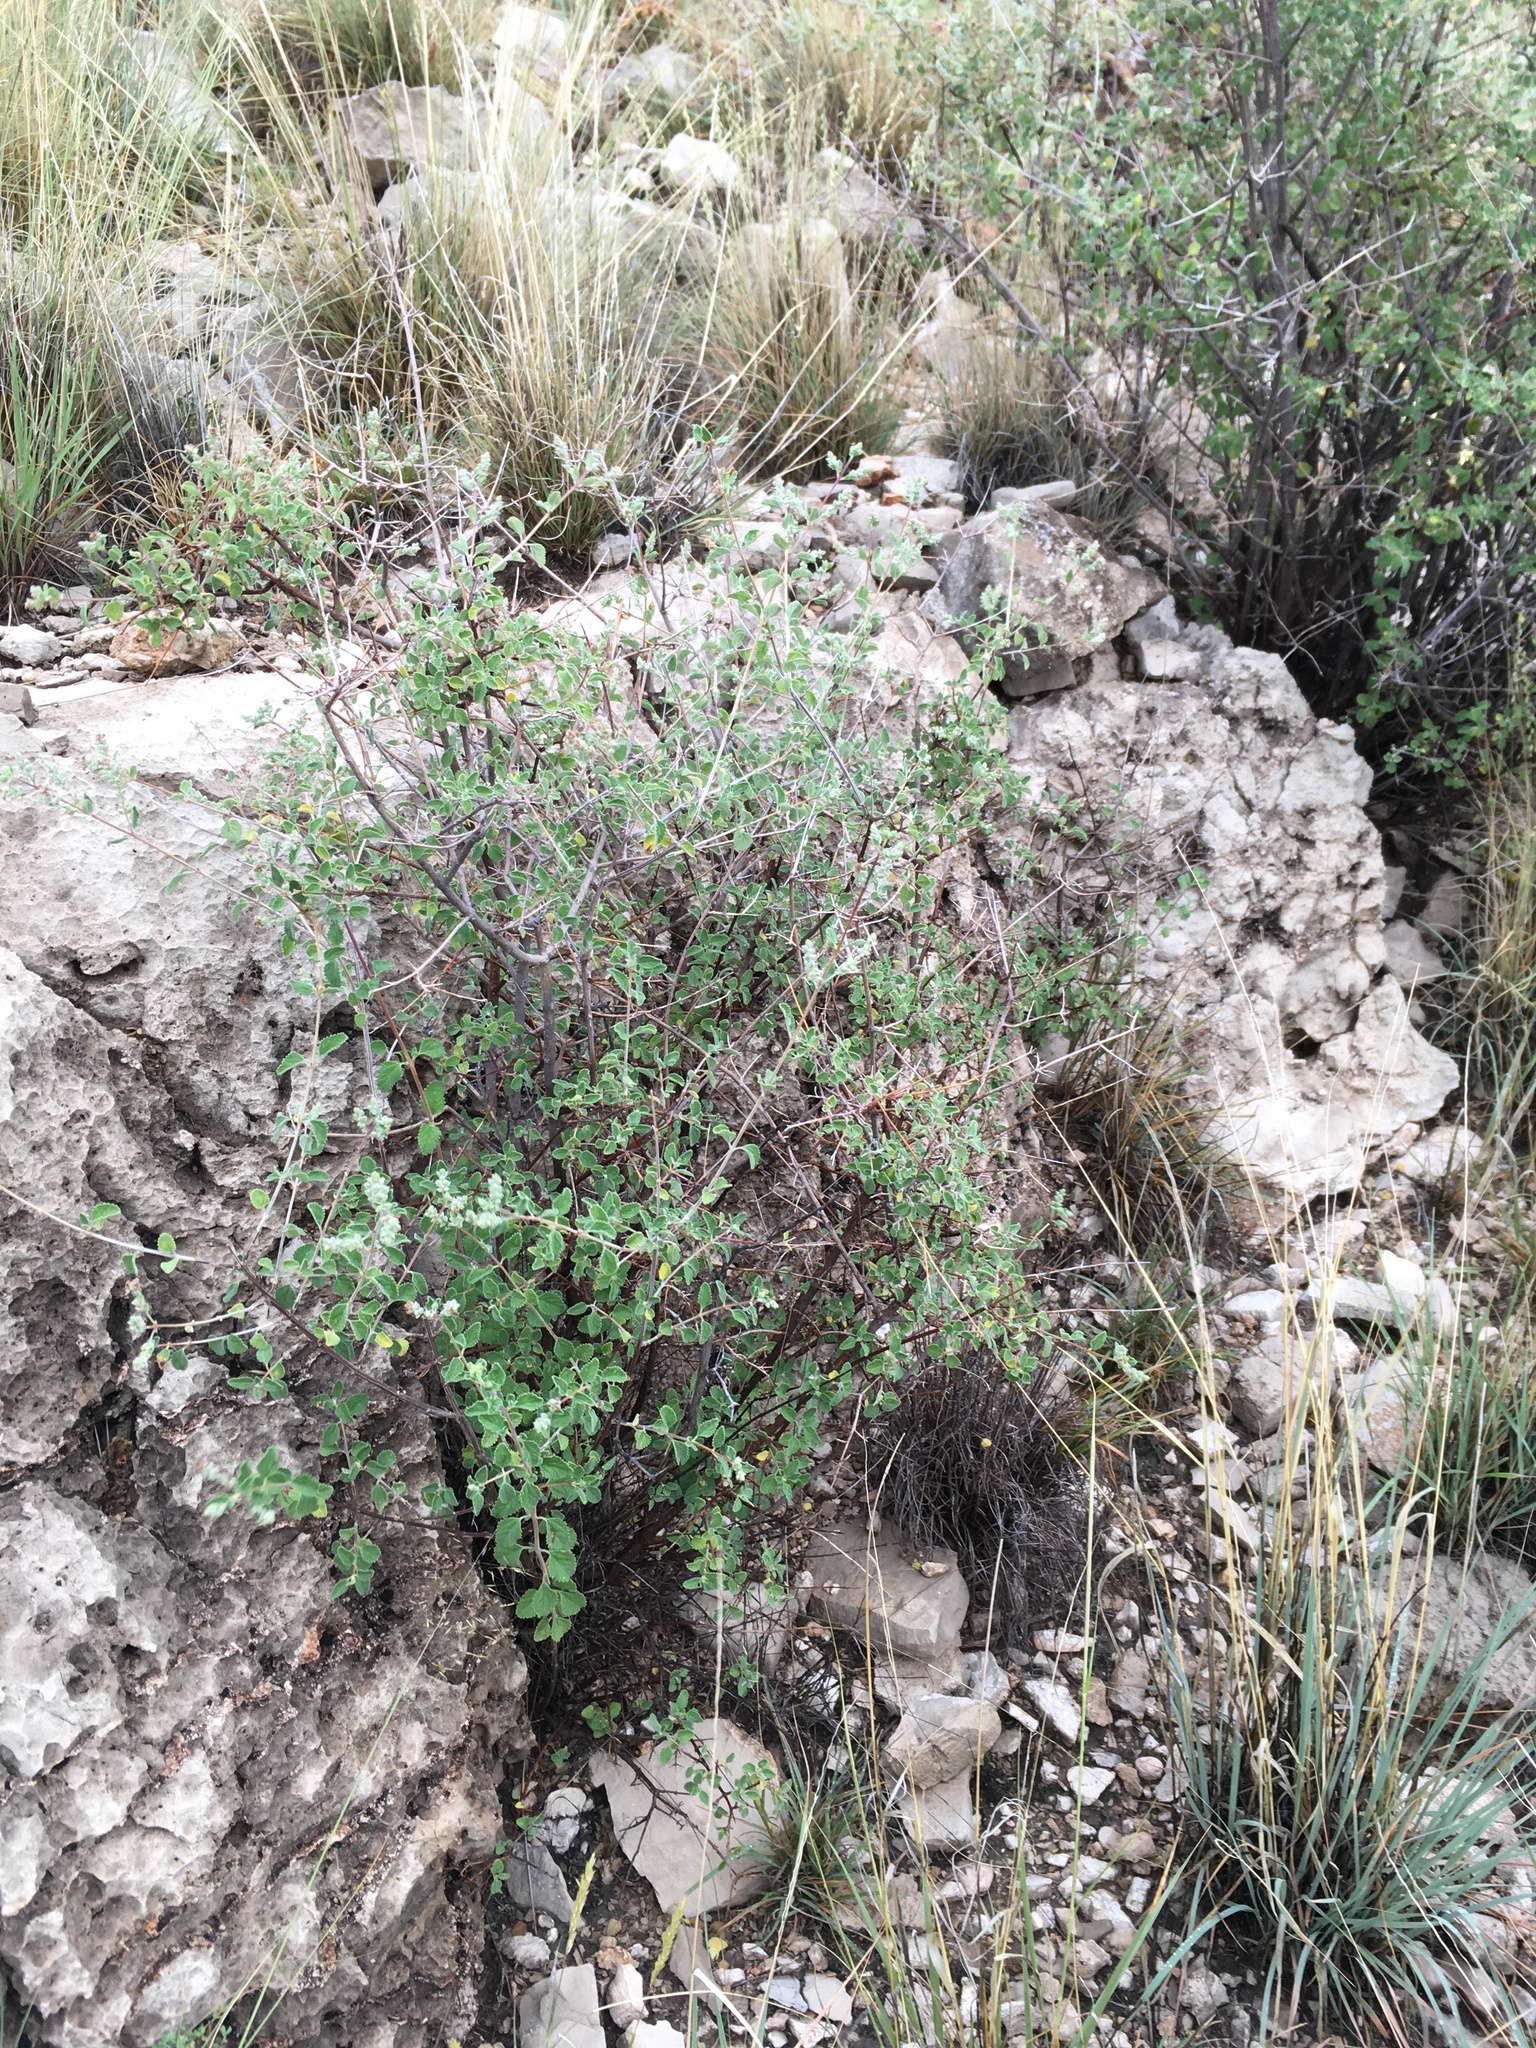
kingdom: Plantae
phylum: Tracheophyta
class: Magnoliopsida
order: Lamiales
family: Verbenaceae
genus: Aloysia
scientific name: Aloysia wrightii
